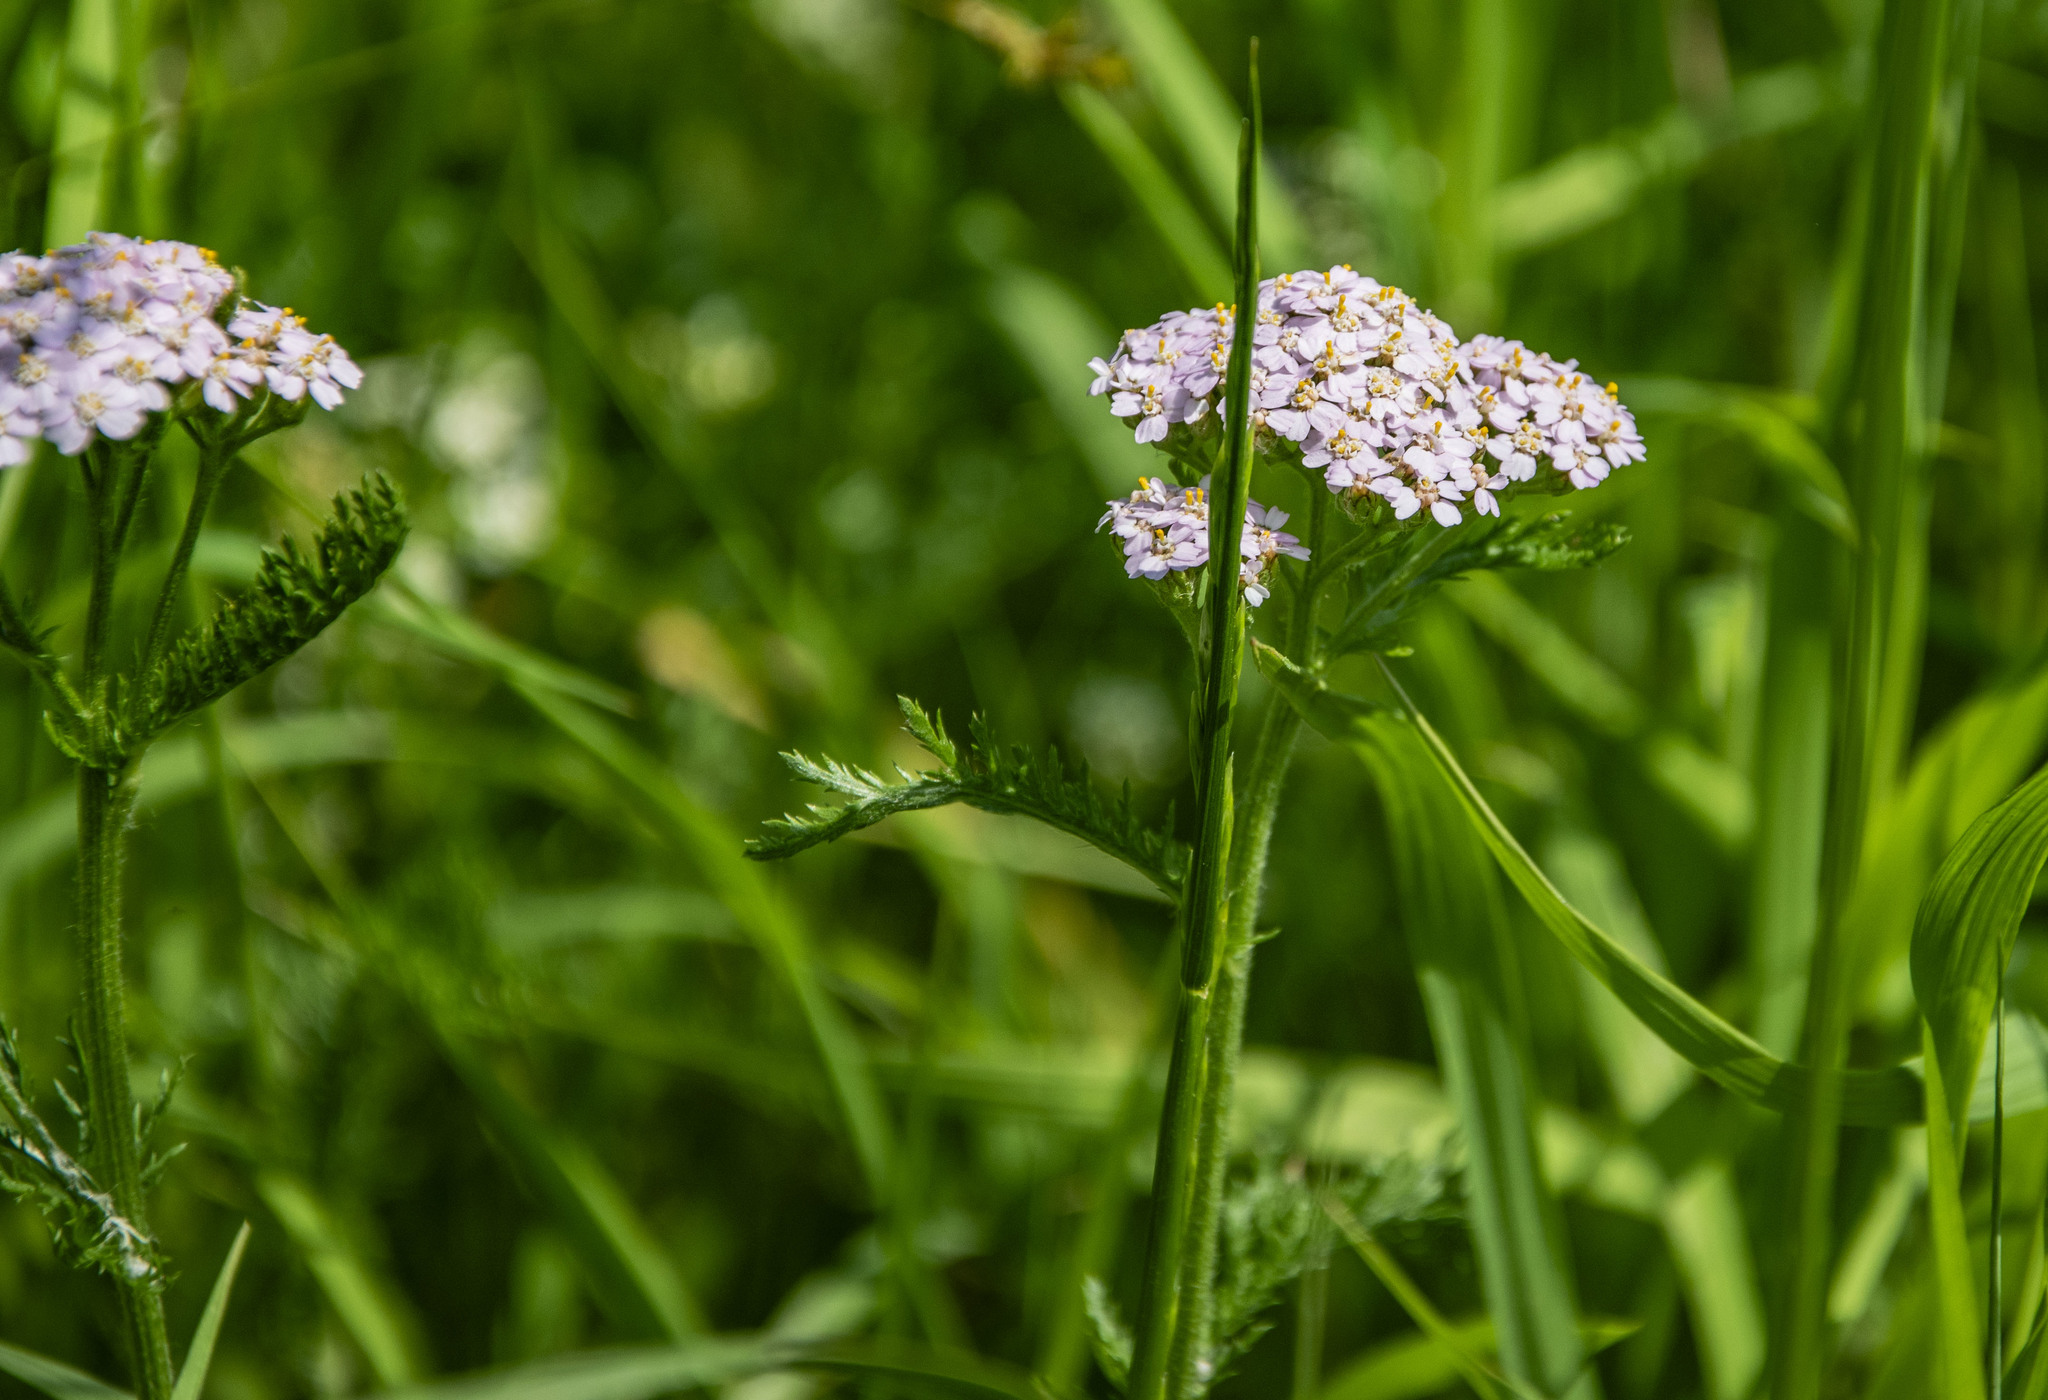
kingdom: Plantae
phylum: Tracheophyta
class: Magnoliopsida
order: Asterales
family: Asteraceae
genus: Achillea
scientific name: Achillea millefolium
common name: Yarrow
